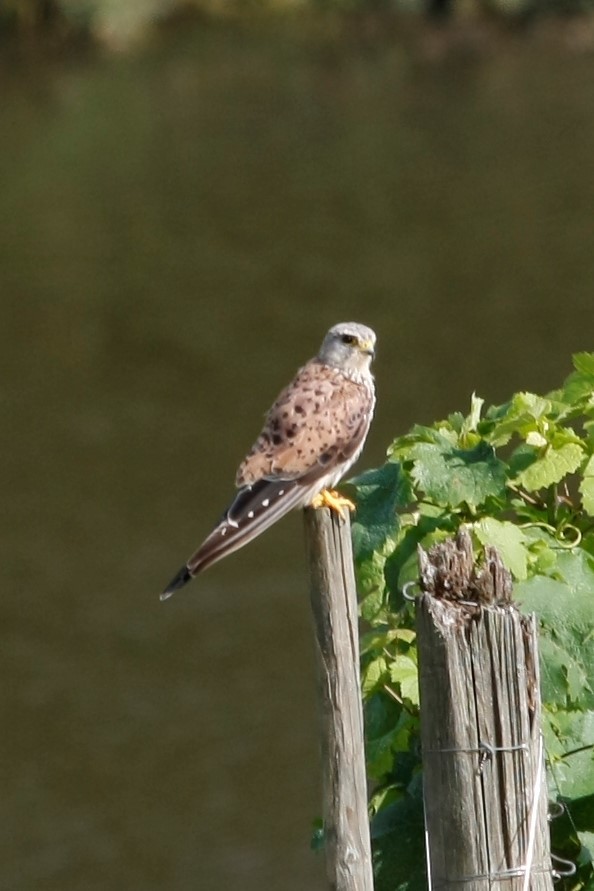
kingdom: Animalia
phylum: Chordata
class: Aves
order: Falconiformes
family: Falconidae
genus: Falco
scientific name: Falco tinnunculus
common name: Common kestrel
